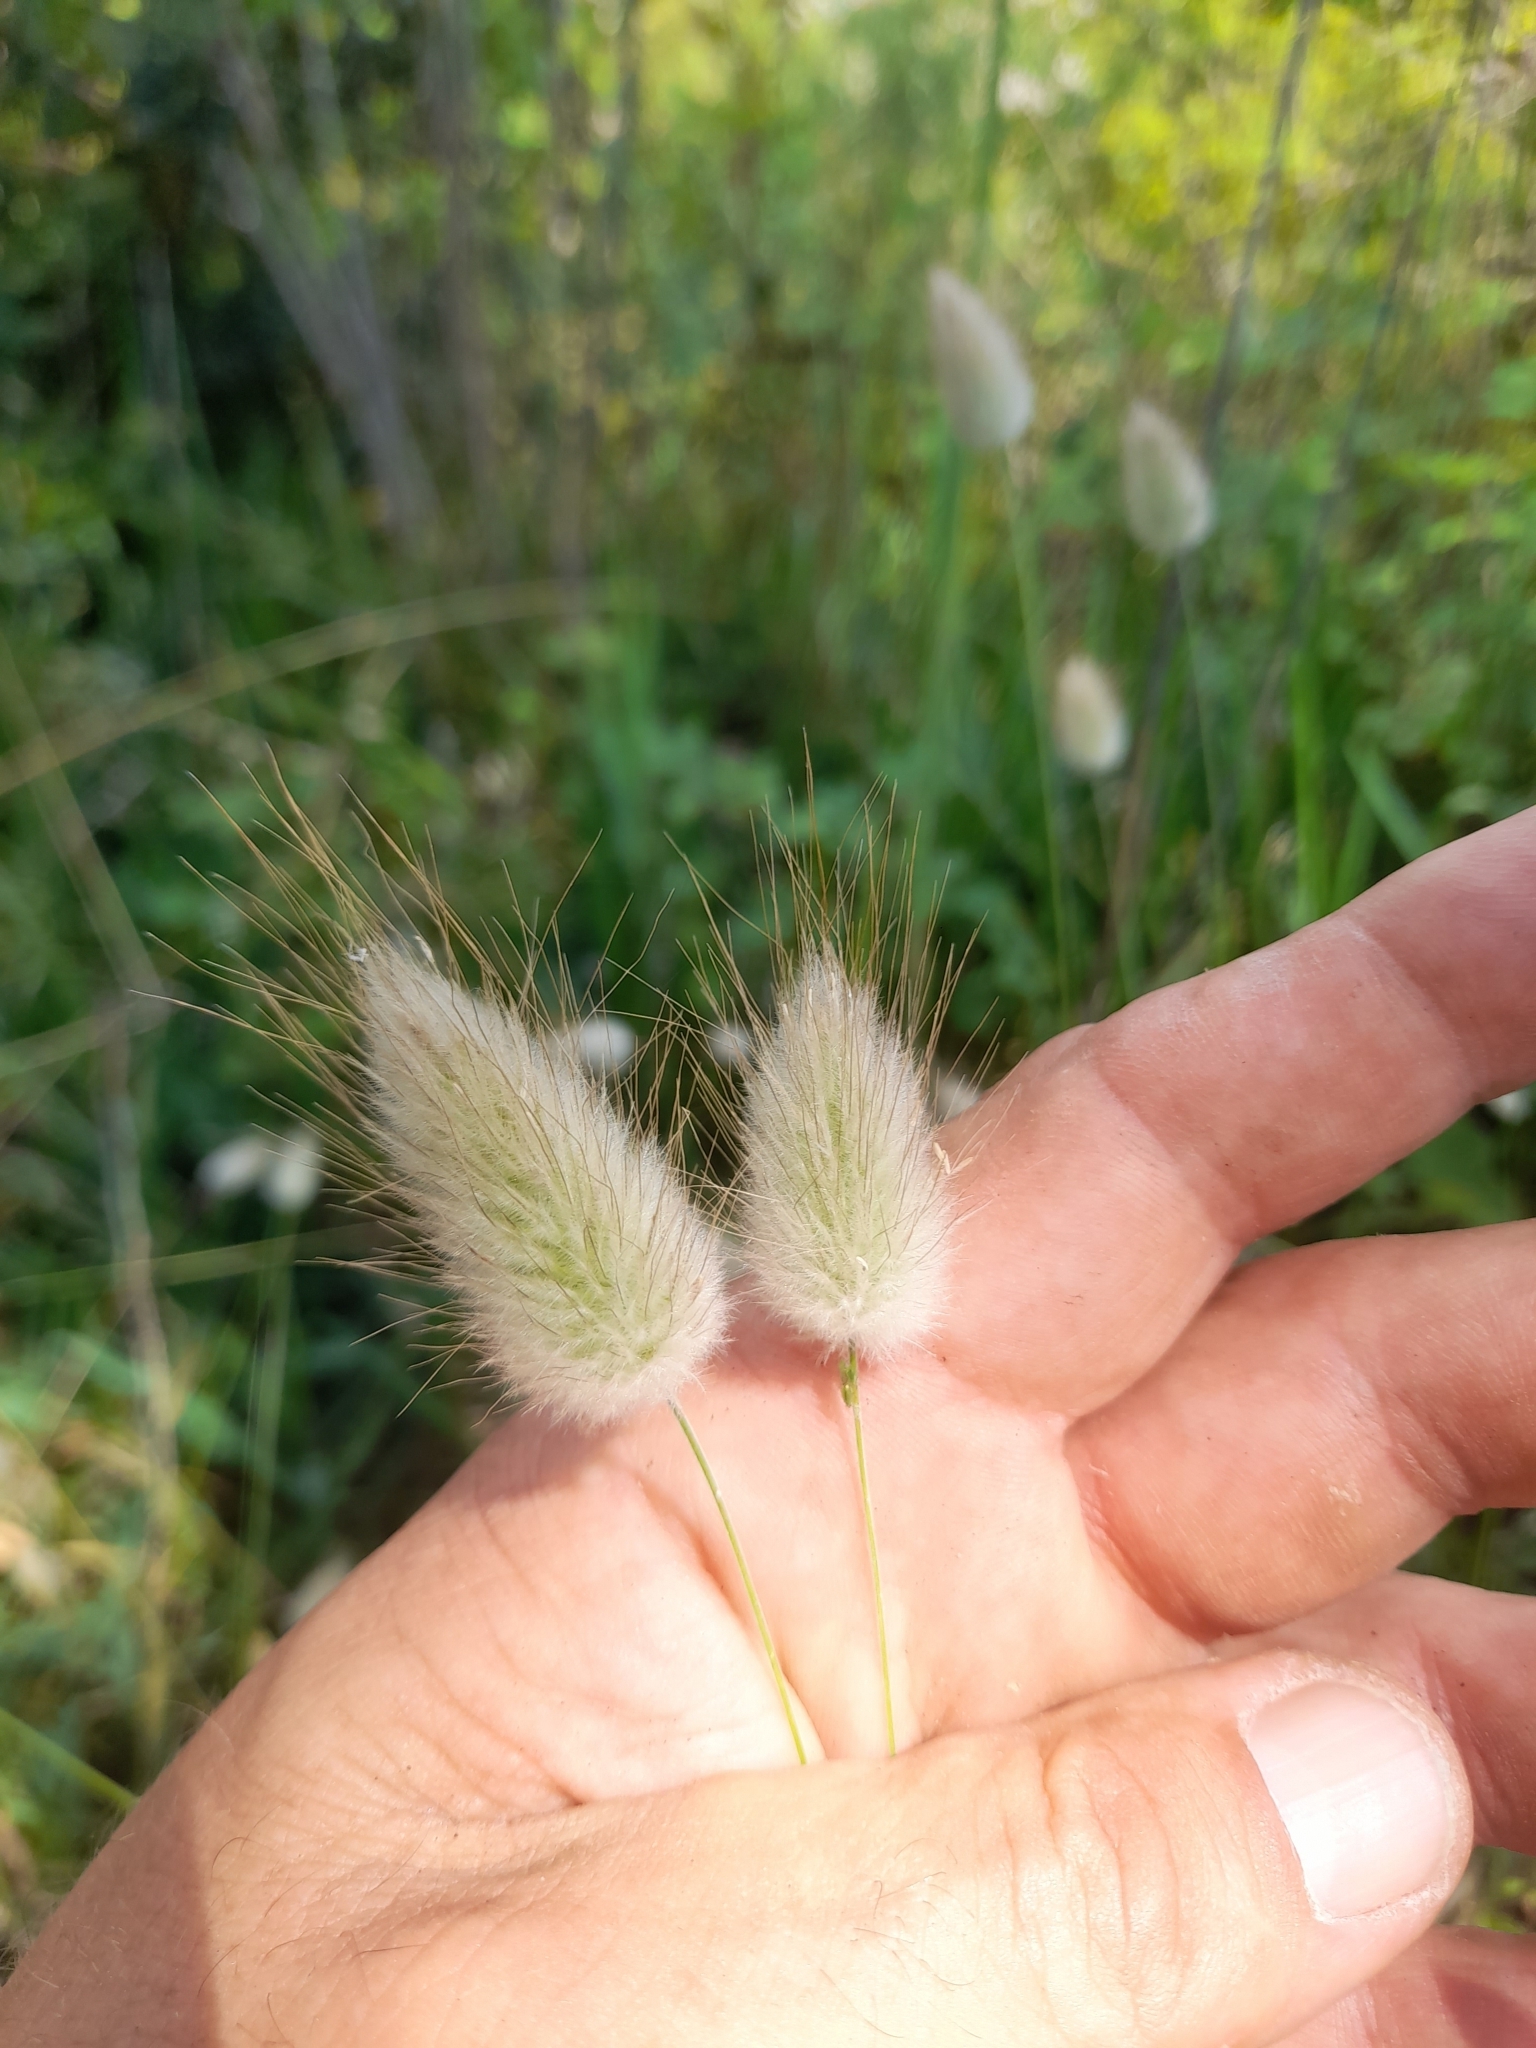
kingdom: Plantae
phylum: Tracheophyta
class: Liliopsida
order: Poales
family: Poaceae
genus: Lagurus
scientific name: Lagurus ovatus
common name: Hare's-tail
